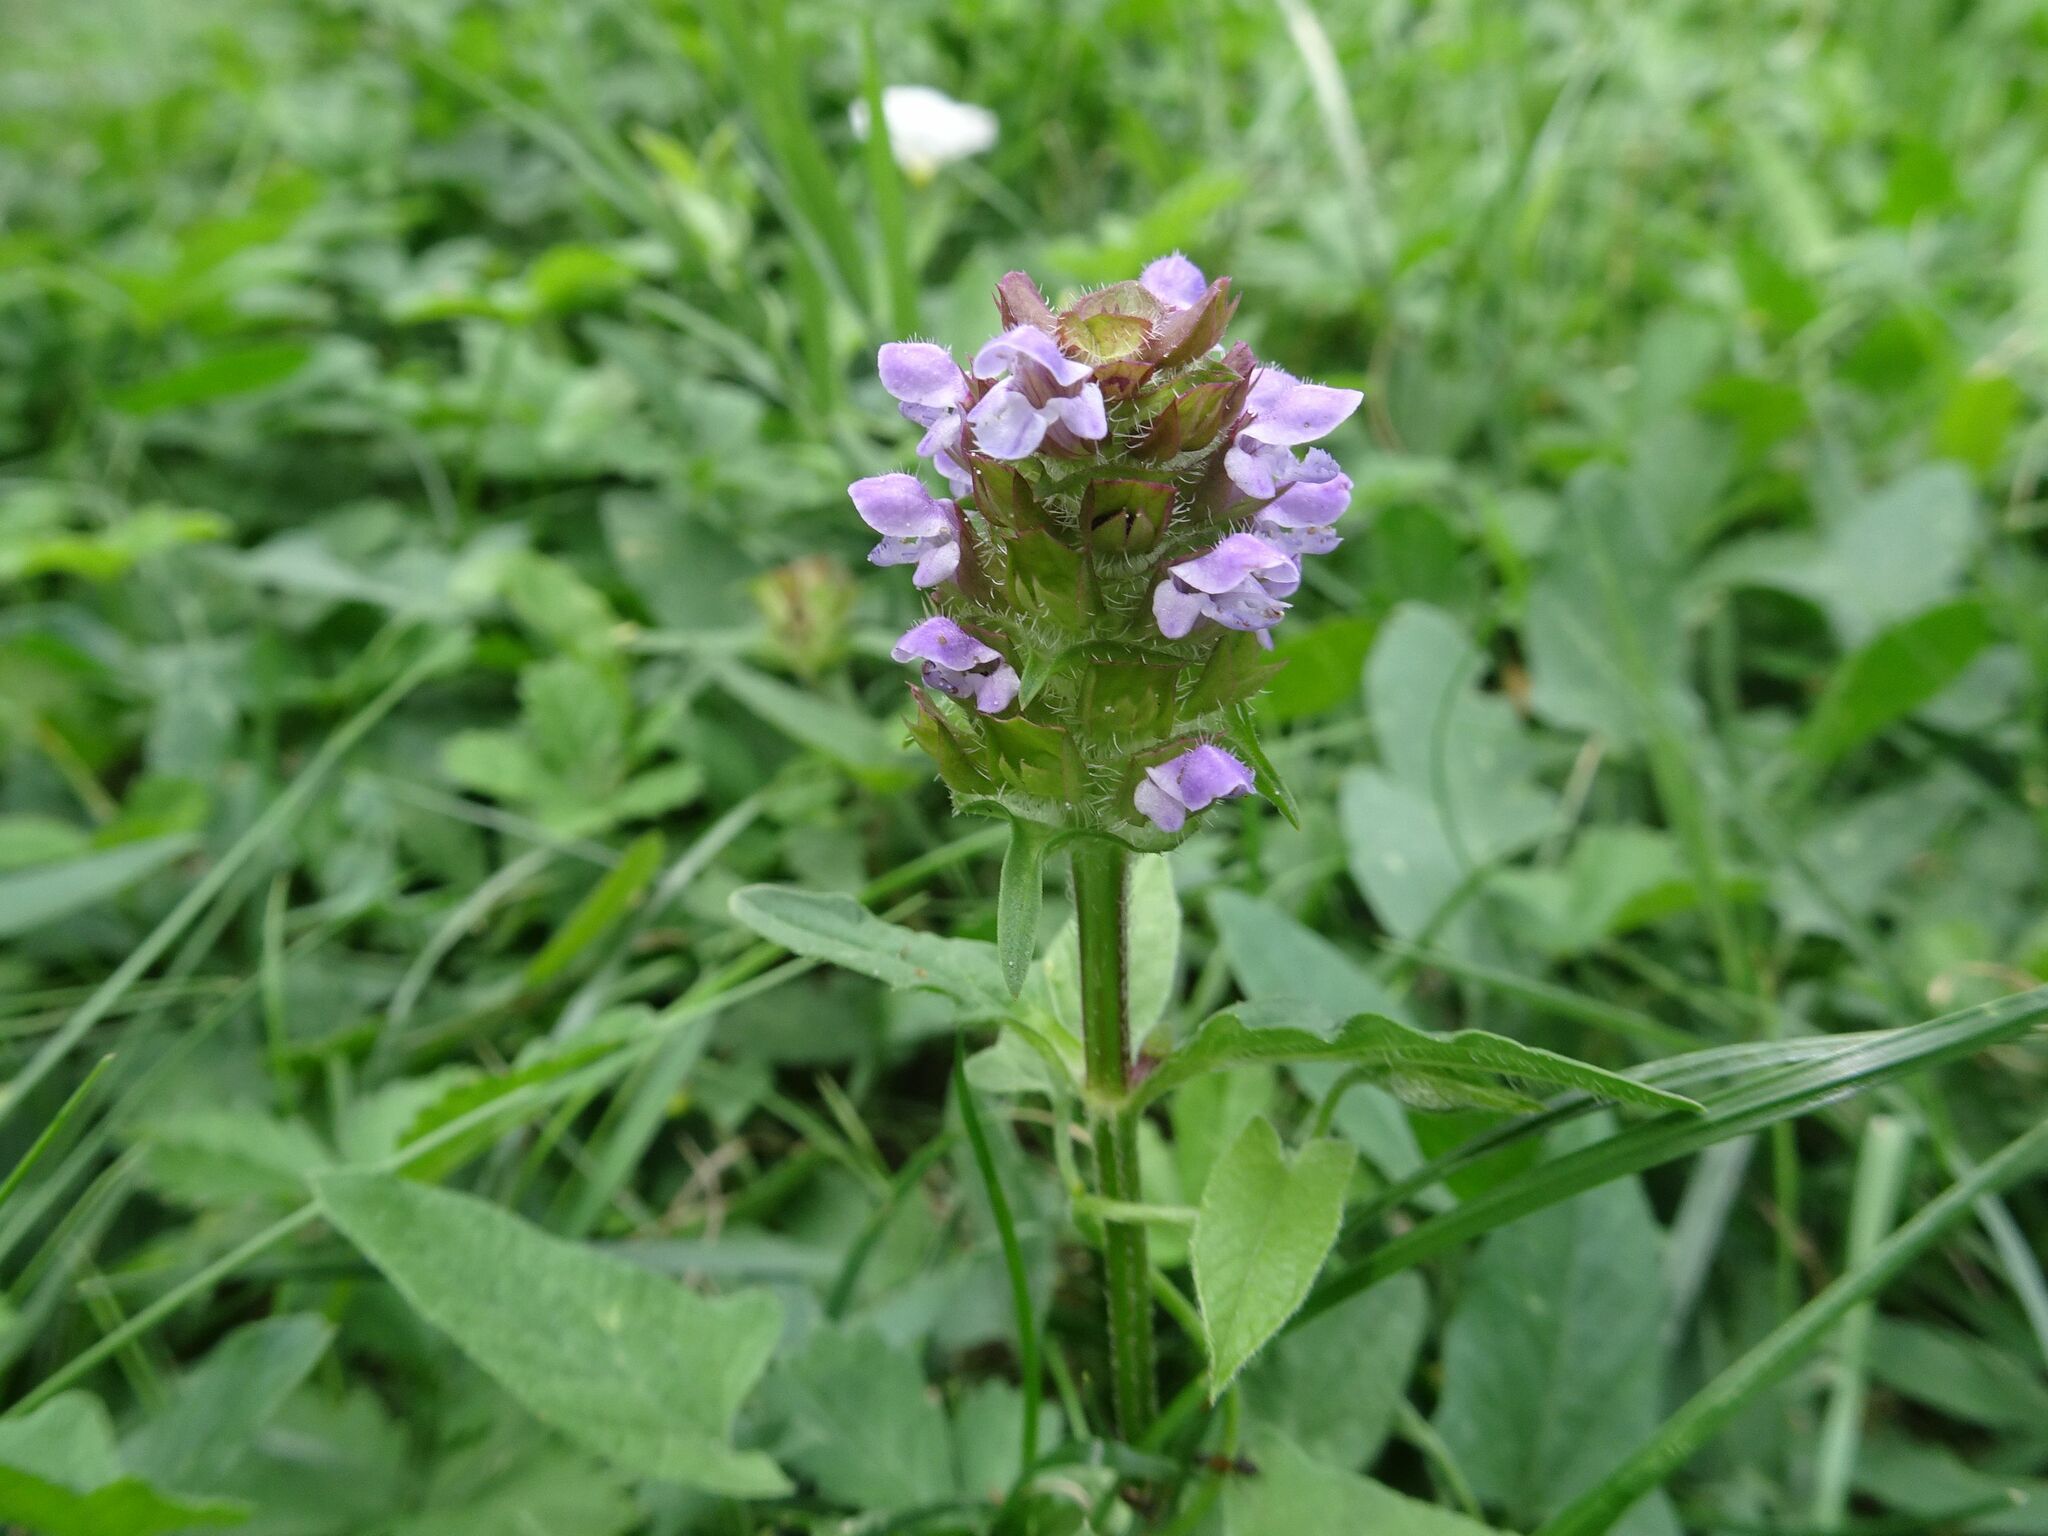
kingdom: Plantae
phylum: Tracheophyta
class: Magnoliopsida
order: Lamiales
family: Lamiaceae
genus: Prunella
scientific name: Prunella vulgaris
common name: Heal-all
